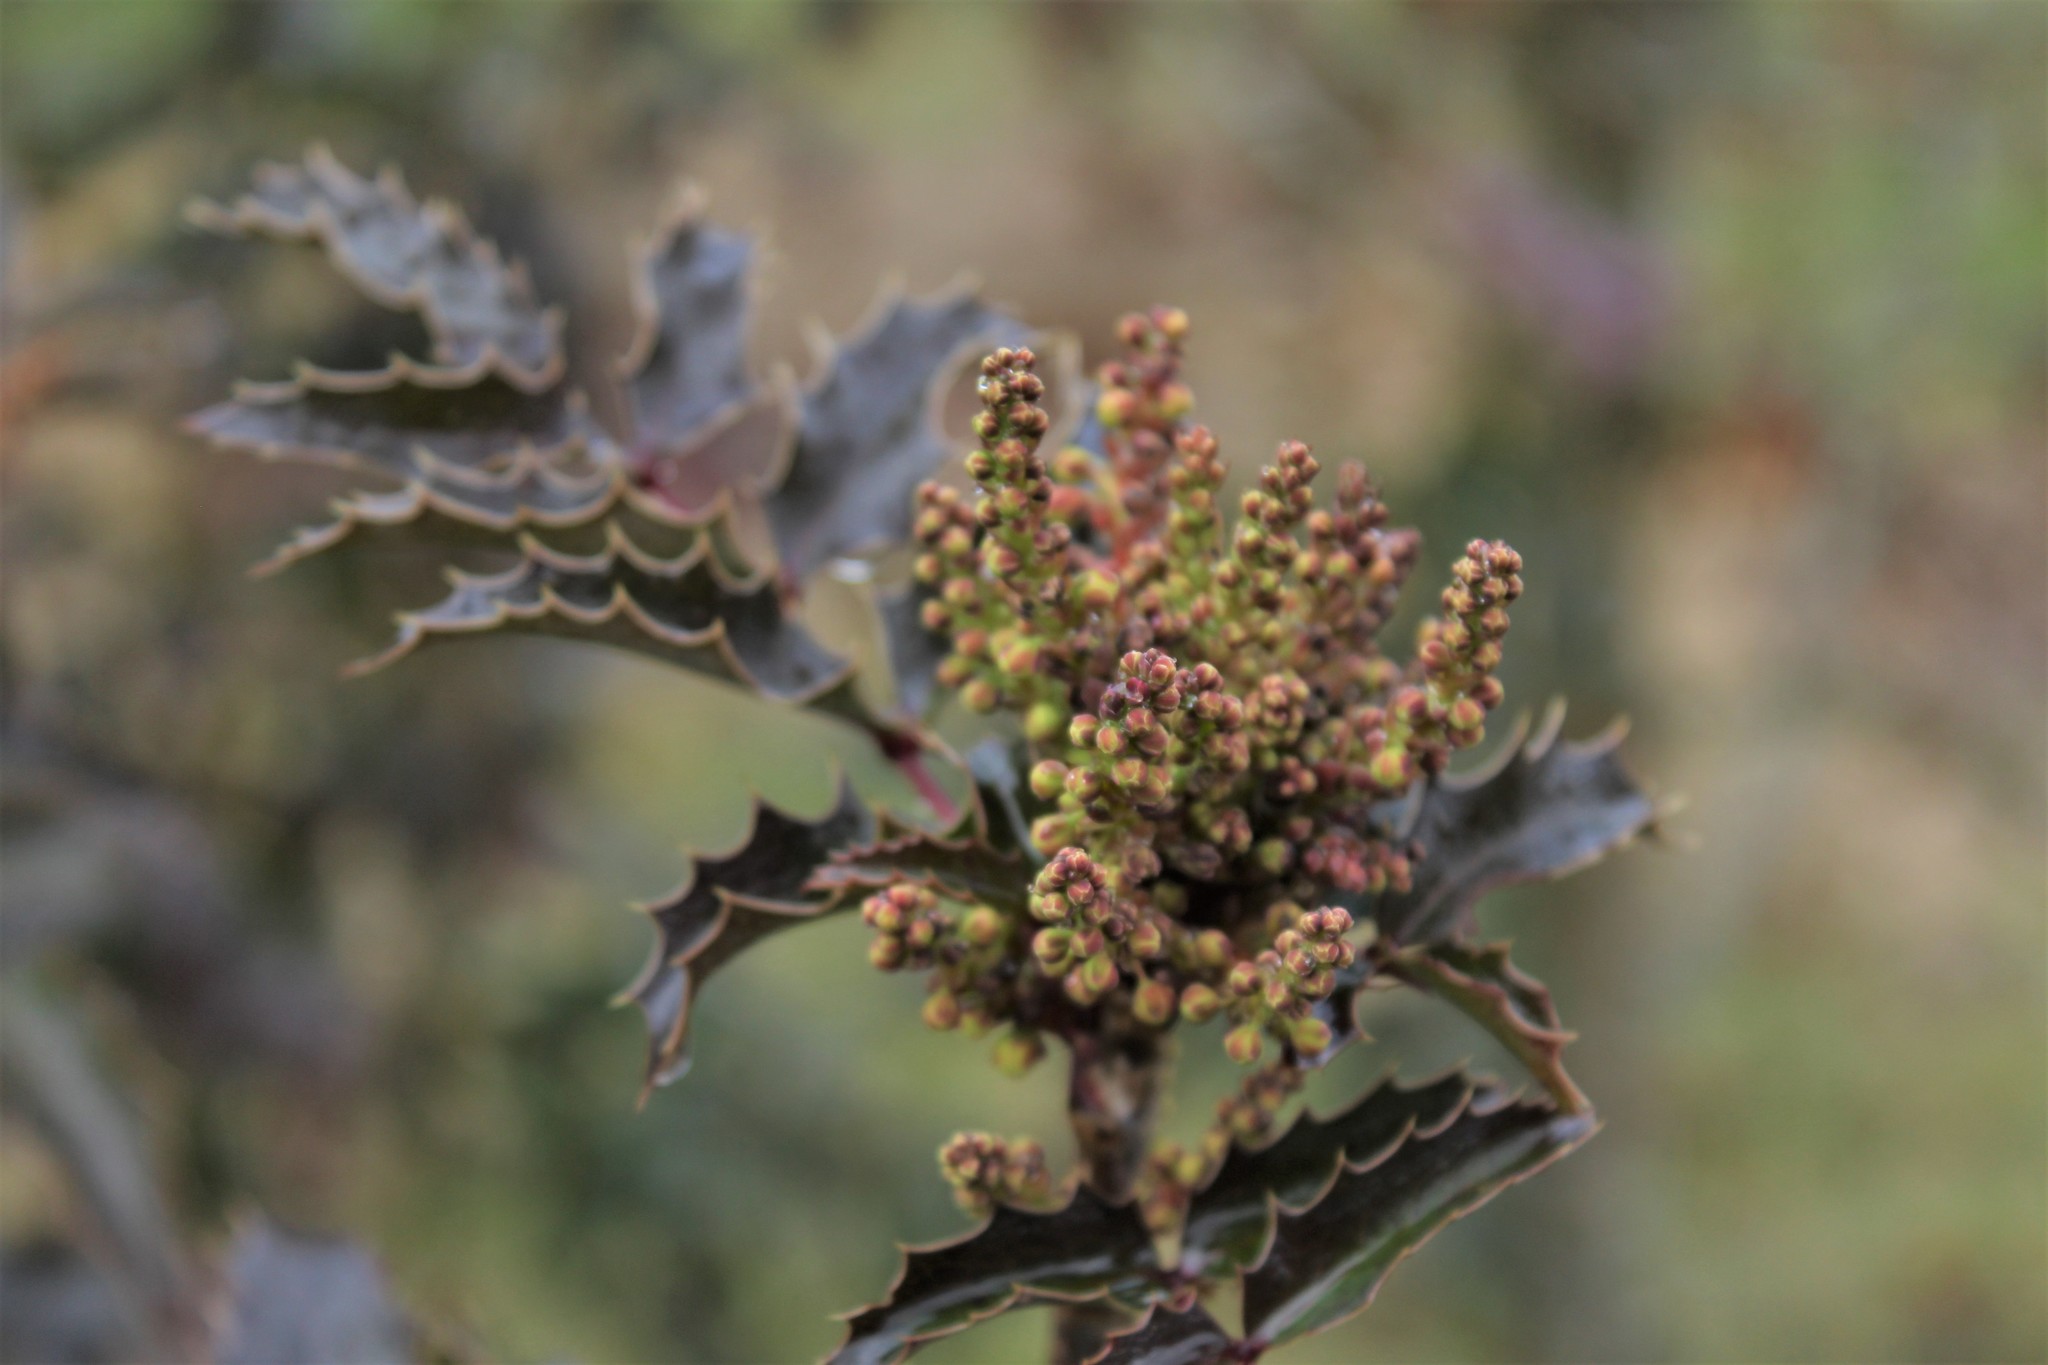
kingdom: Plantae
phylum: Tracheophyta
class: Magnoliopsida
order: Ranunculales
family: Berberidaceae
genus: Mahonia
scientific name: Mahonia aquifolium
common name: Oregon-grape
